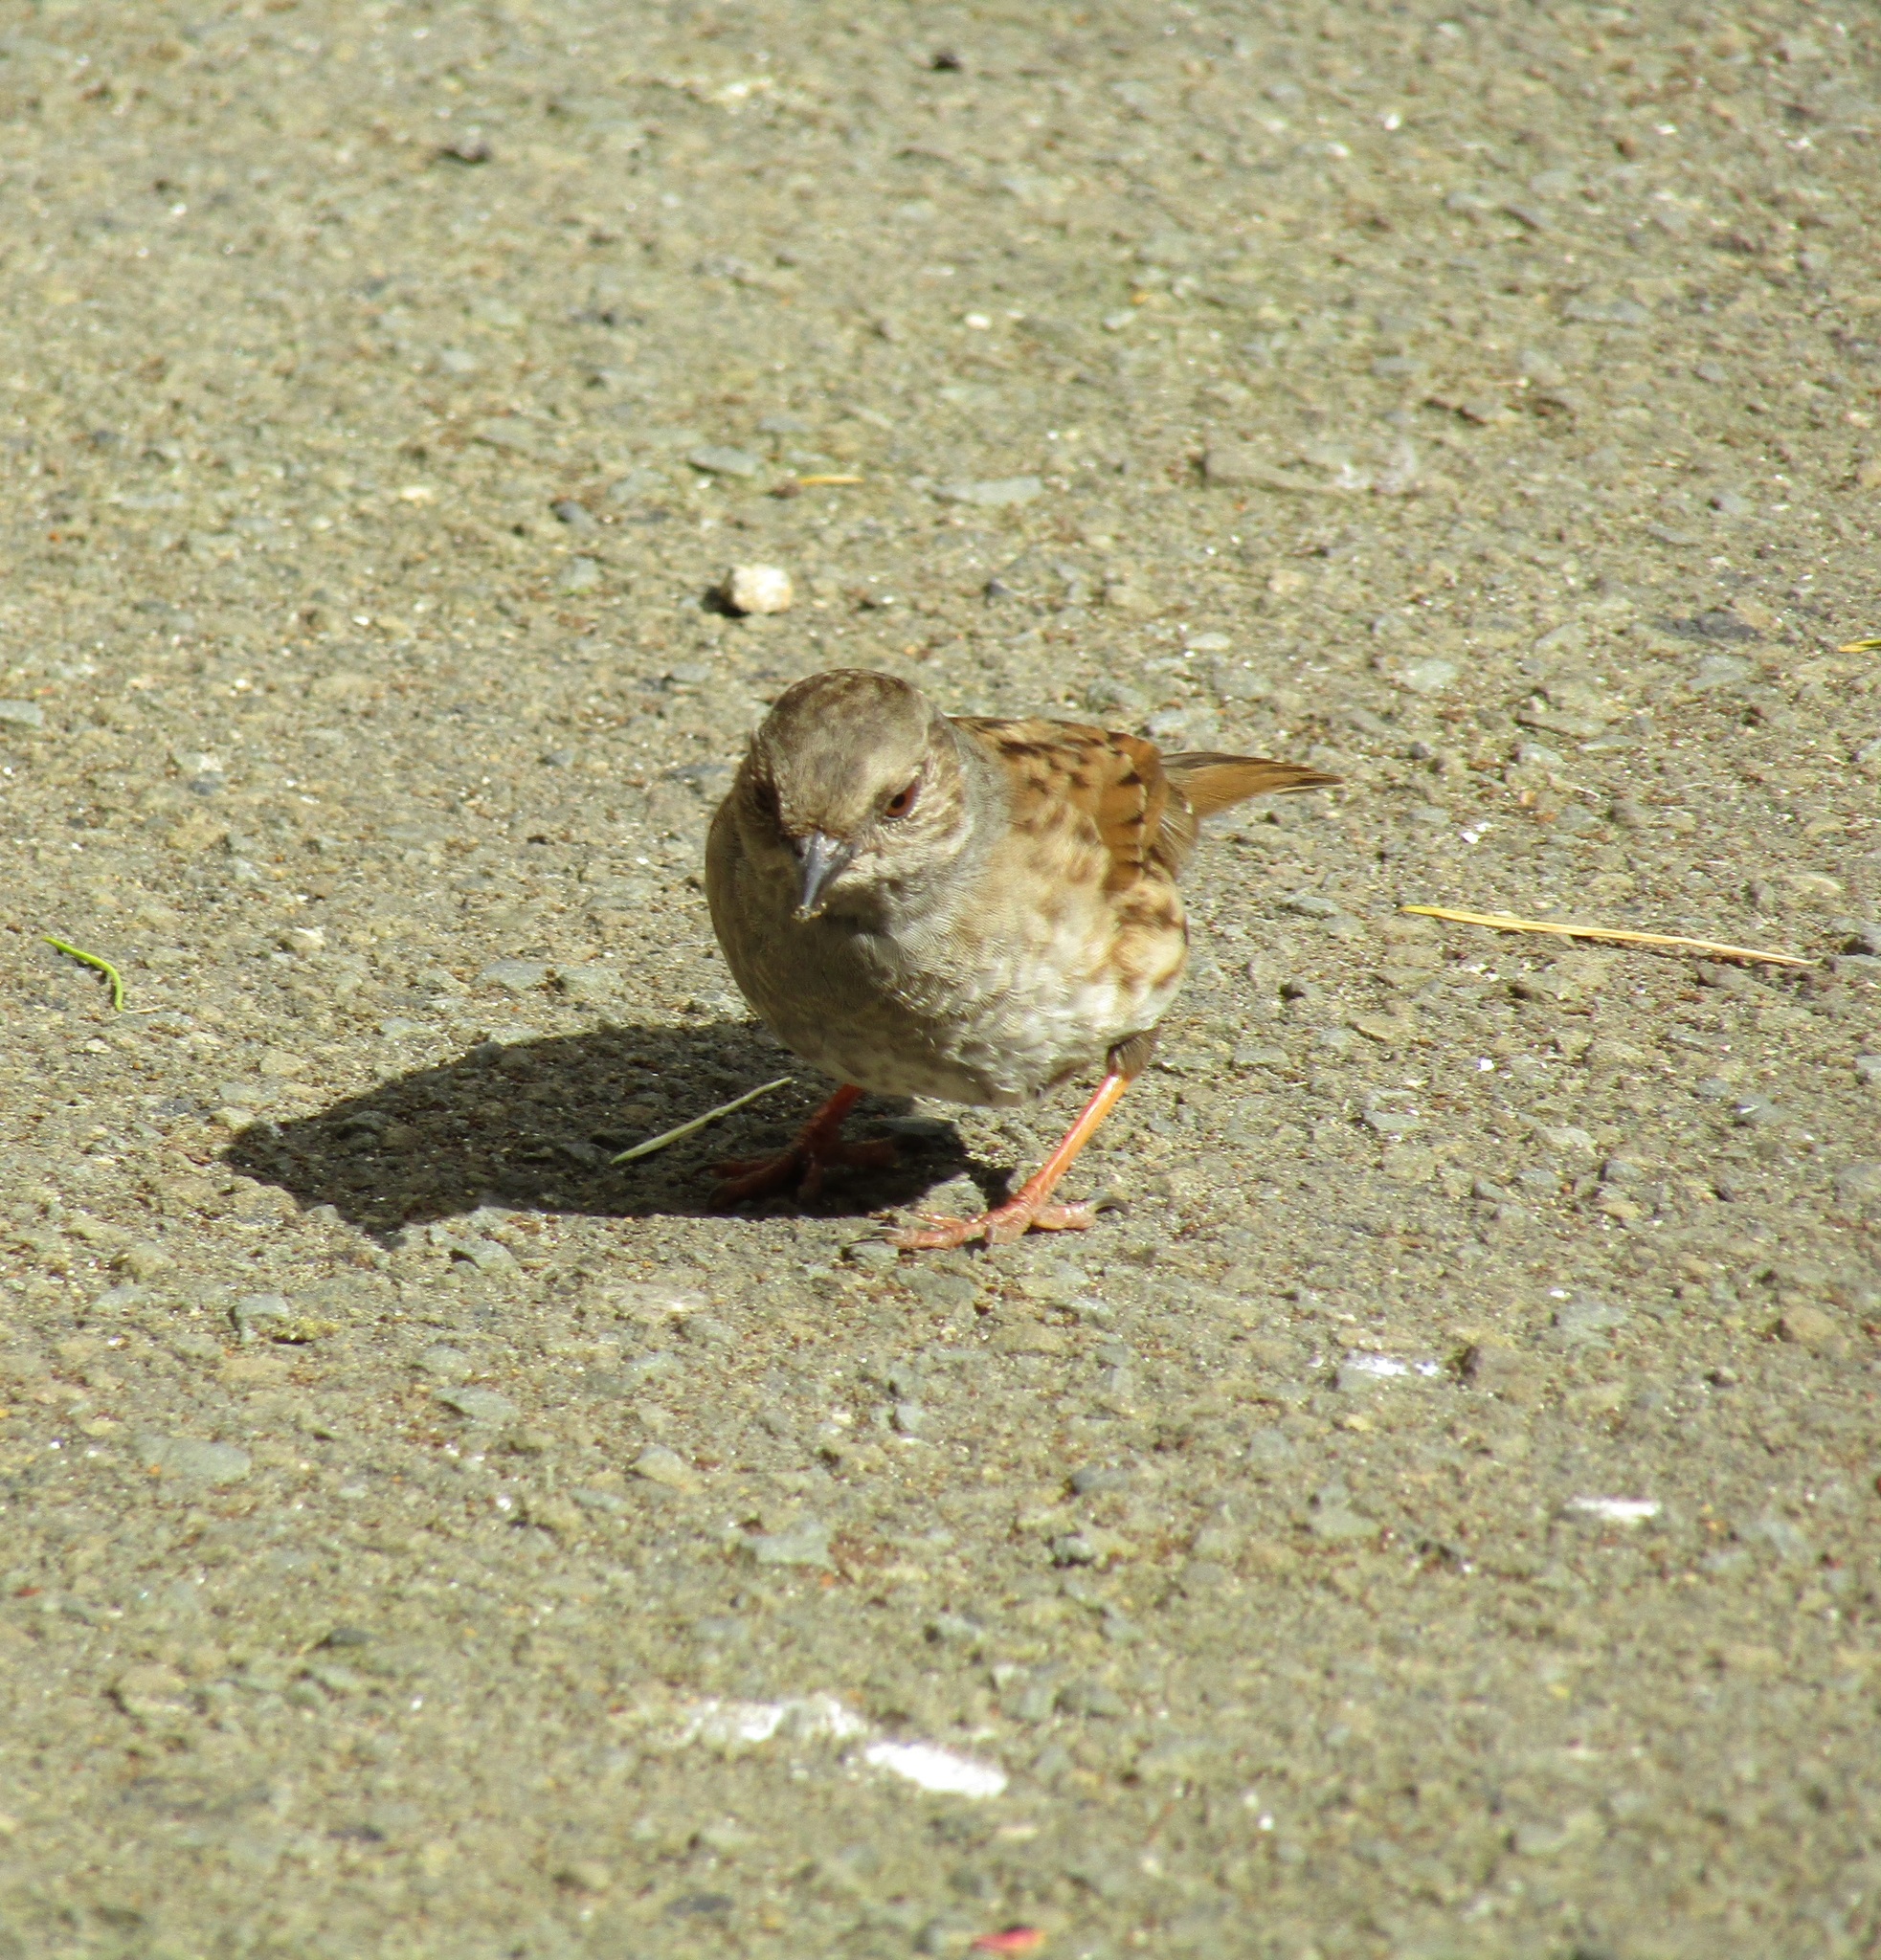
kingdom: Animalia
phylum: Chordata
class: Aves
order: Passeriformes
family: Prunellidae
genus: Prunella
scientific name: Prunella modularis
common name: Dunnock
